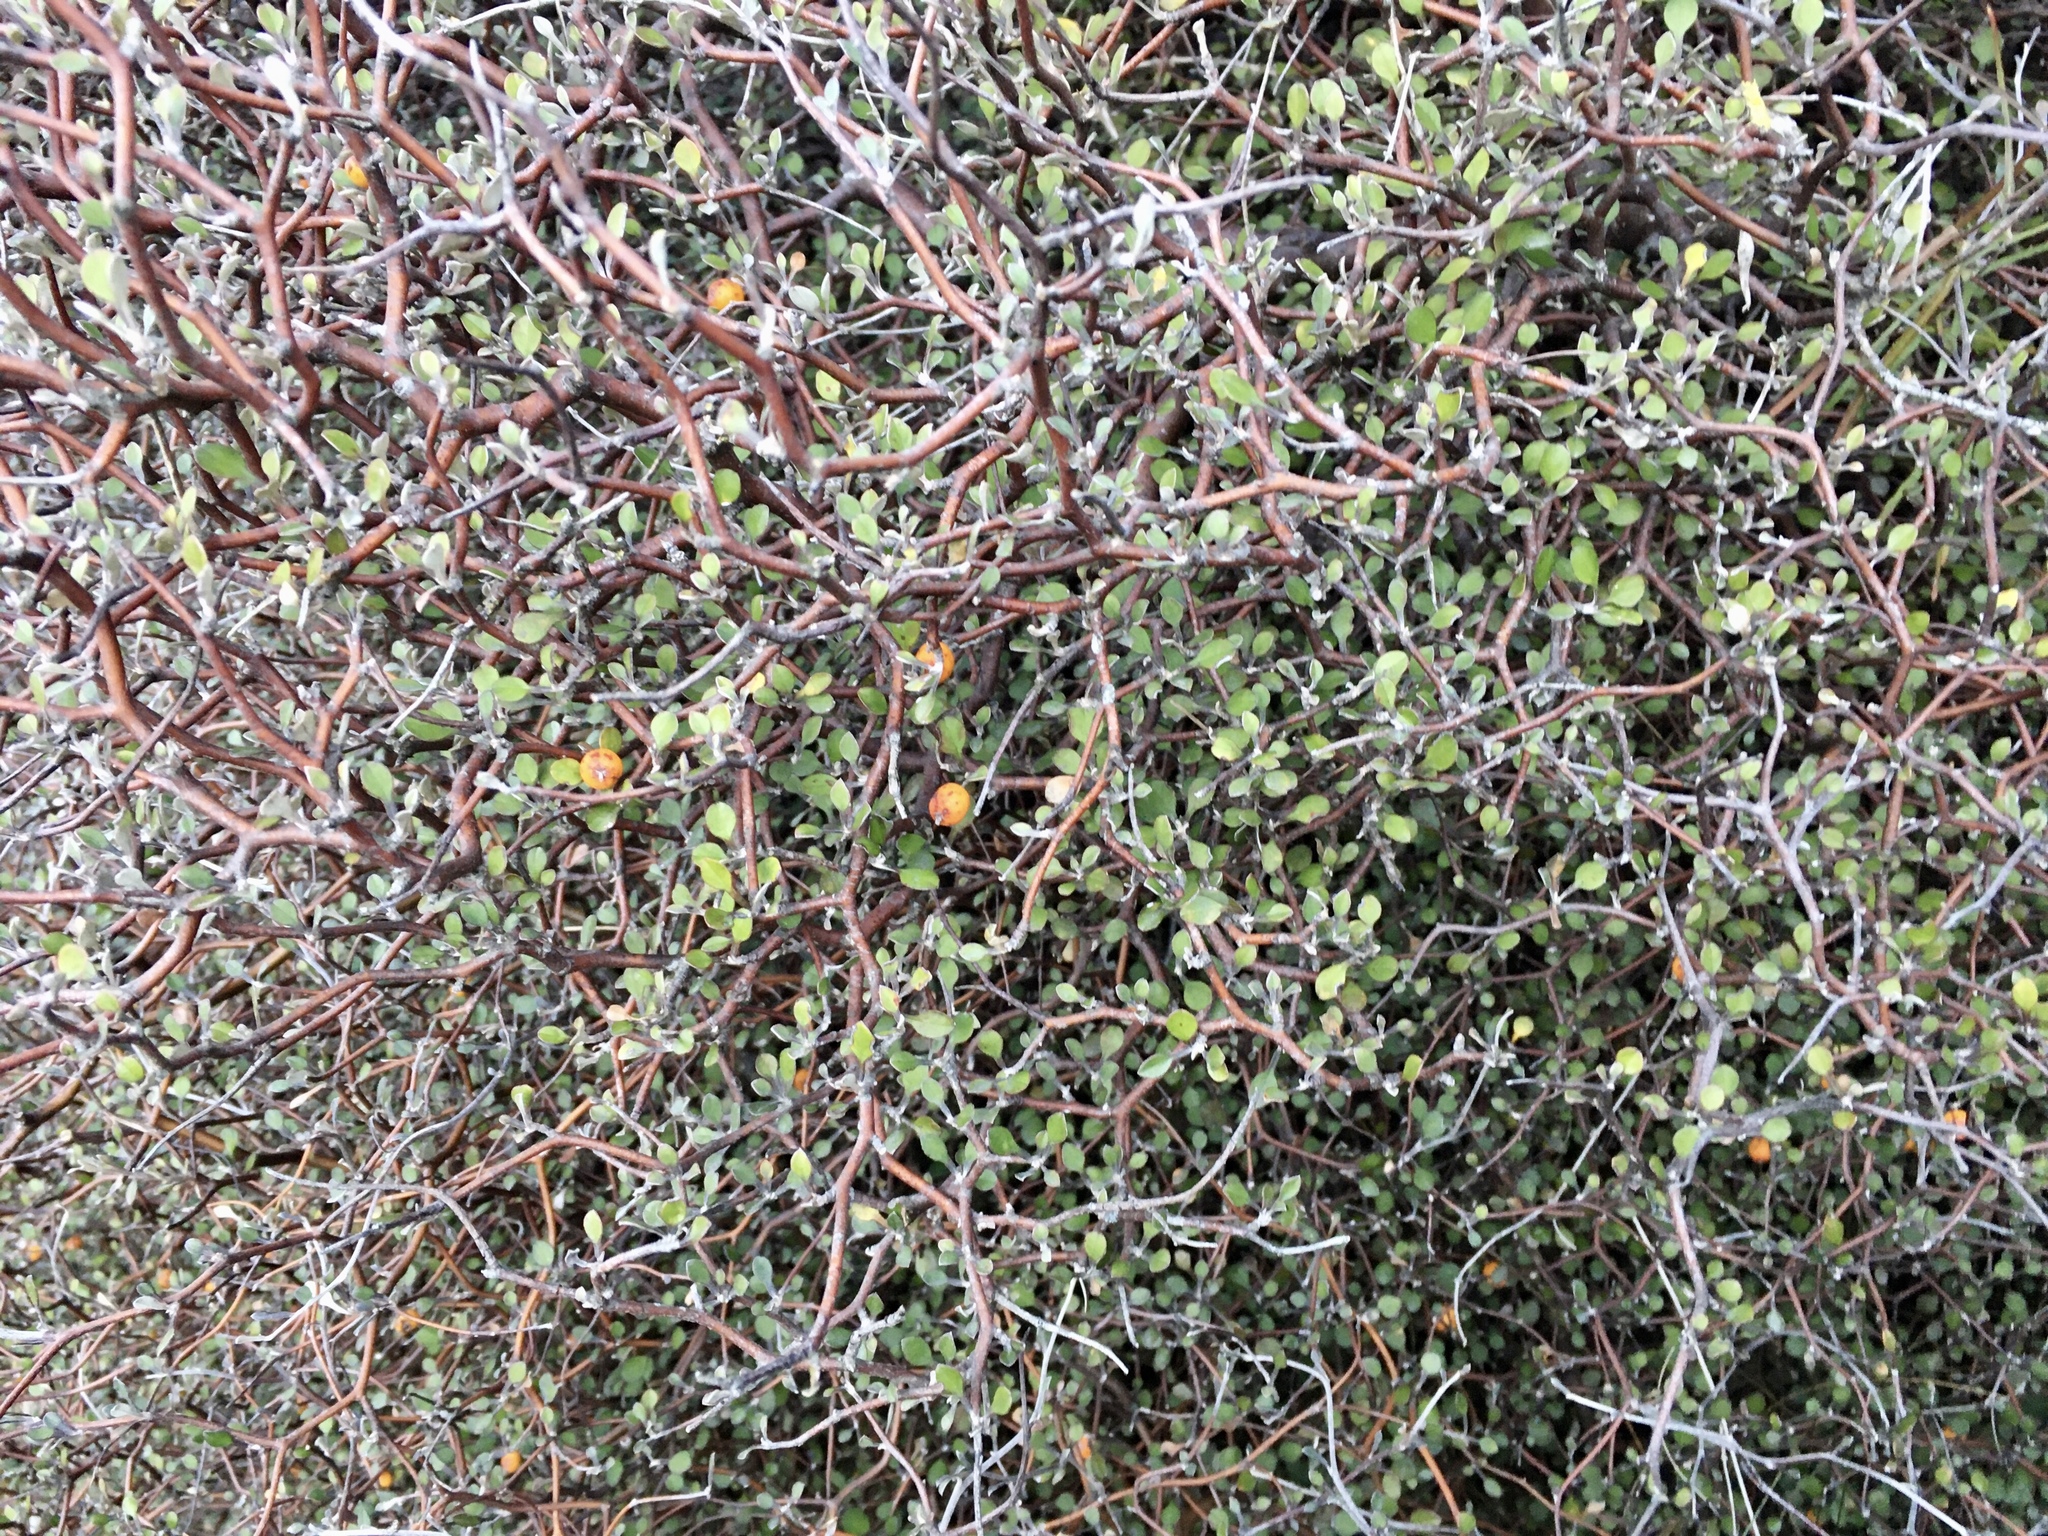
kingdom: Plantae
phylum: Tracheophyta
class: Magnoliopsida
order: Asterales
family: Argophyllaceae
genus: Corokia
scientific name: Corokia cotoneaster
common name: Wire nettingbush
